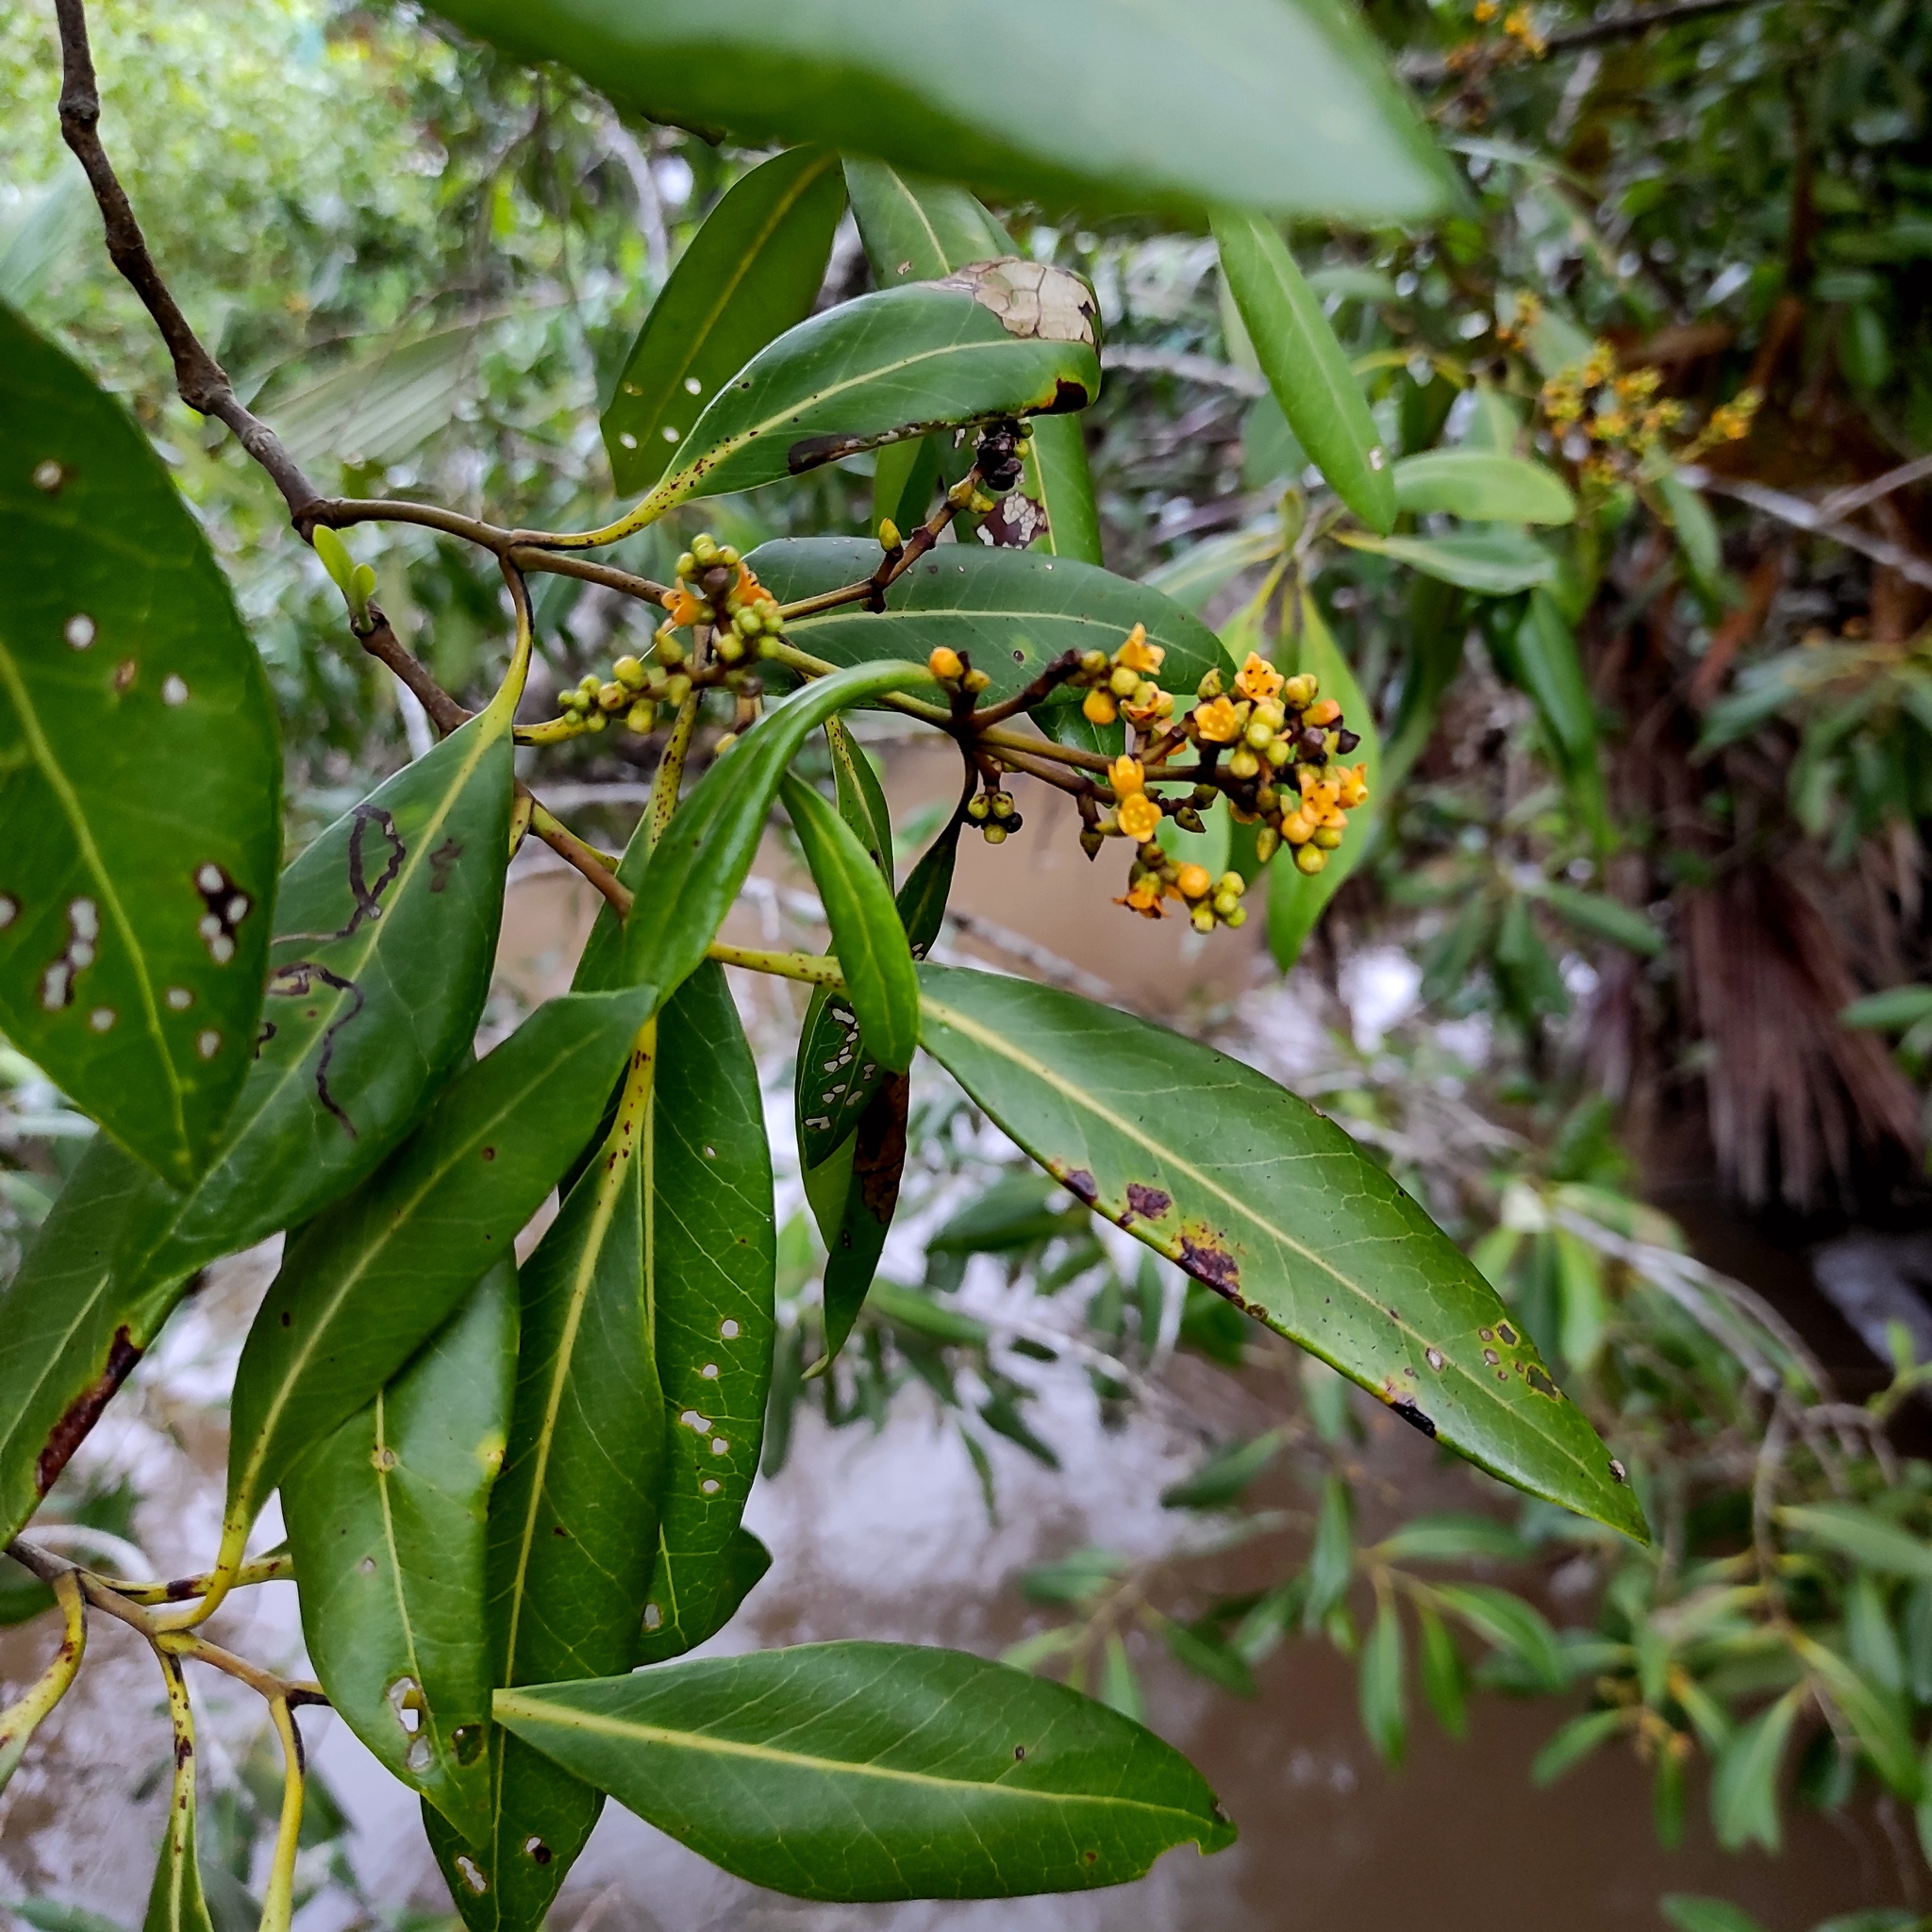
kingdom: Plantae
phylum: Tracheophyta
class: Magnoliopsida
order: Lamiales
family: Acanthaceae
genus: Avicennia
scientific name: Avicennia alba
